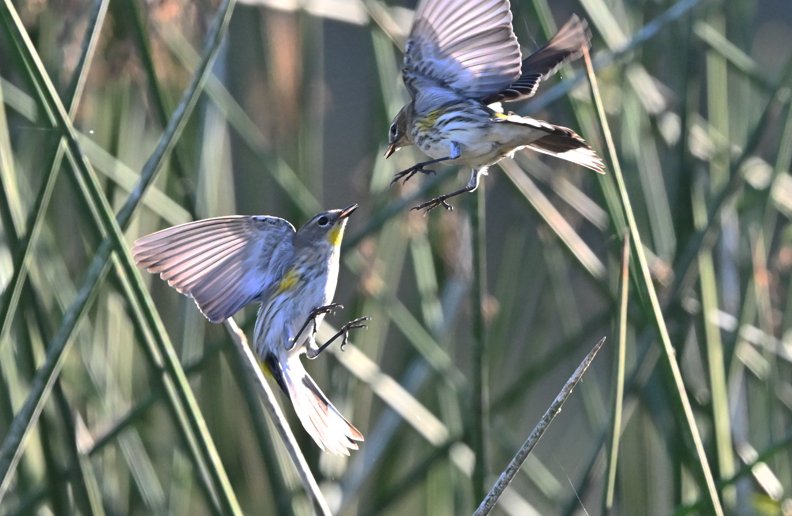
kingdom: Animalia
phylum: Chordata
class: Aves
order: Passeriformes
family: Parulidae
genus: Setophaga
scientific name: Setophaga coronata
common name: Myrtle warbler
